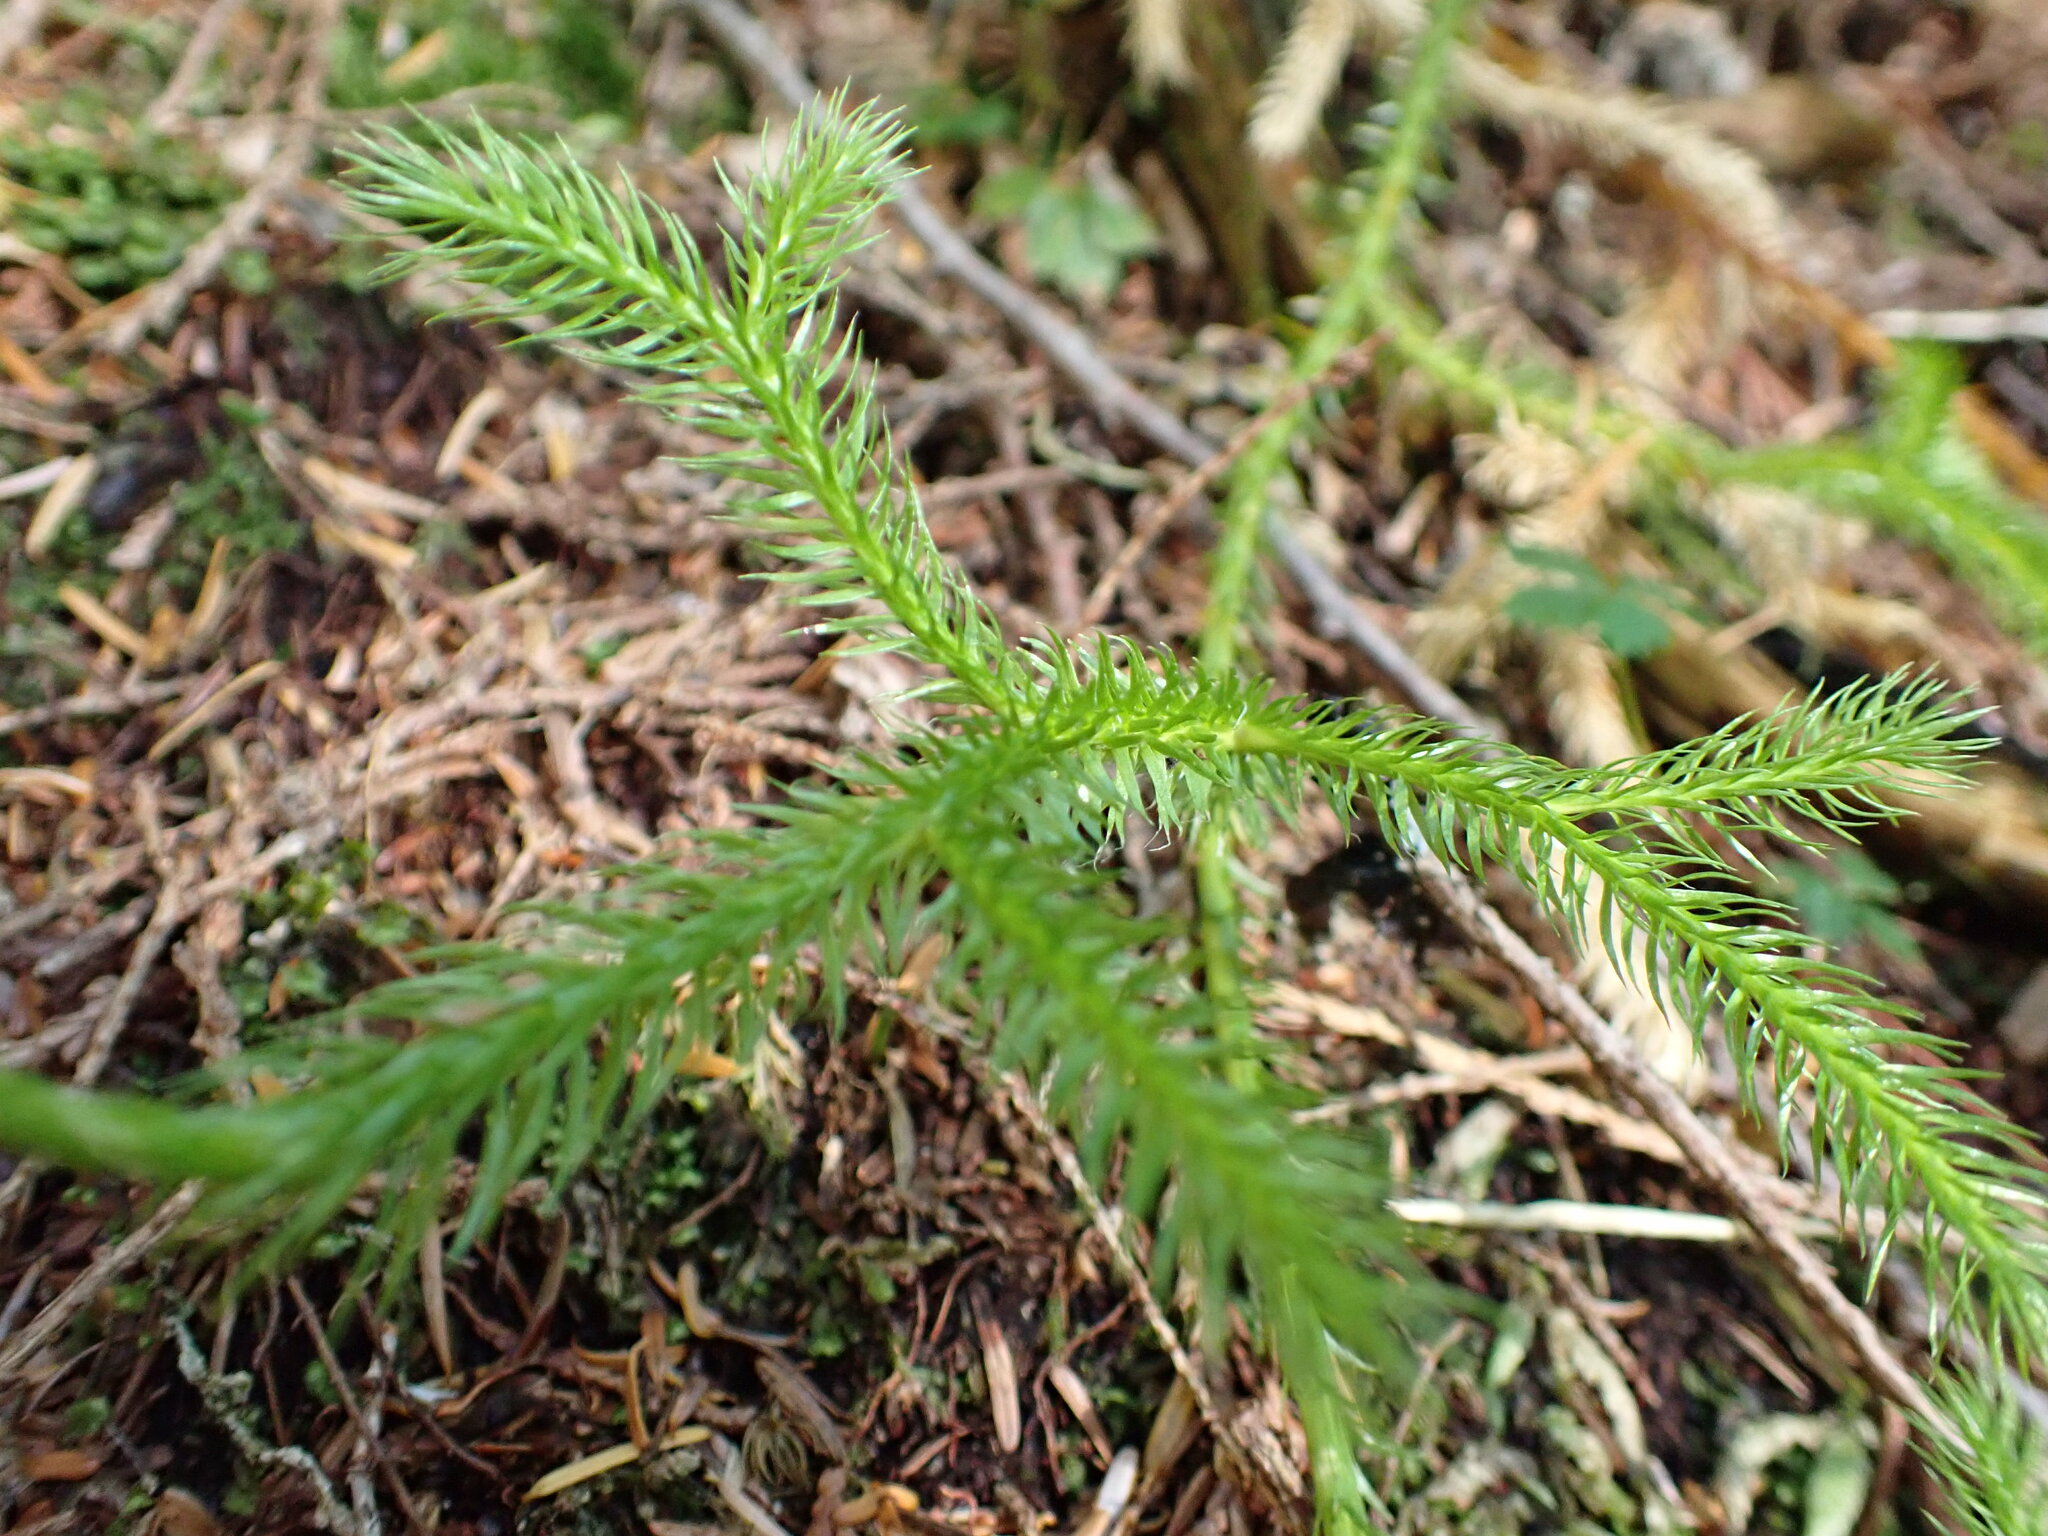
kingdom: Plantae
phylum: Tracheophyta
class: Lycopodiopsida
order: Lycopodiales
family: Lycopodiaceae
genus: Lycopodium
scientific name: Lycopodium clavatum
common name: Stag's-horn clubmoss
